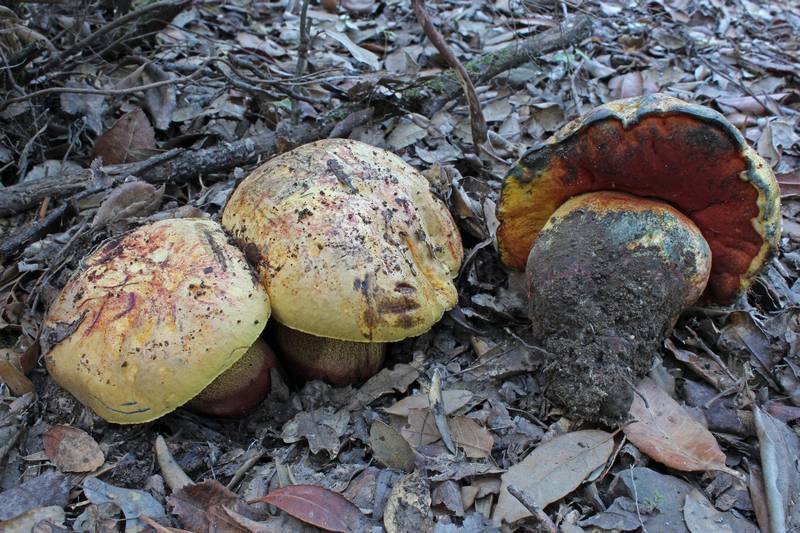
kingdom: Fungi
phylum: Basidiomycota
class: Agaricomycetes
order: Boletales
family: Boletaceae
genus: Imperator
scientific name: Imperator luteocupreus
